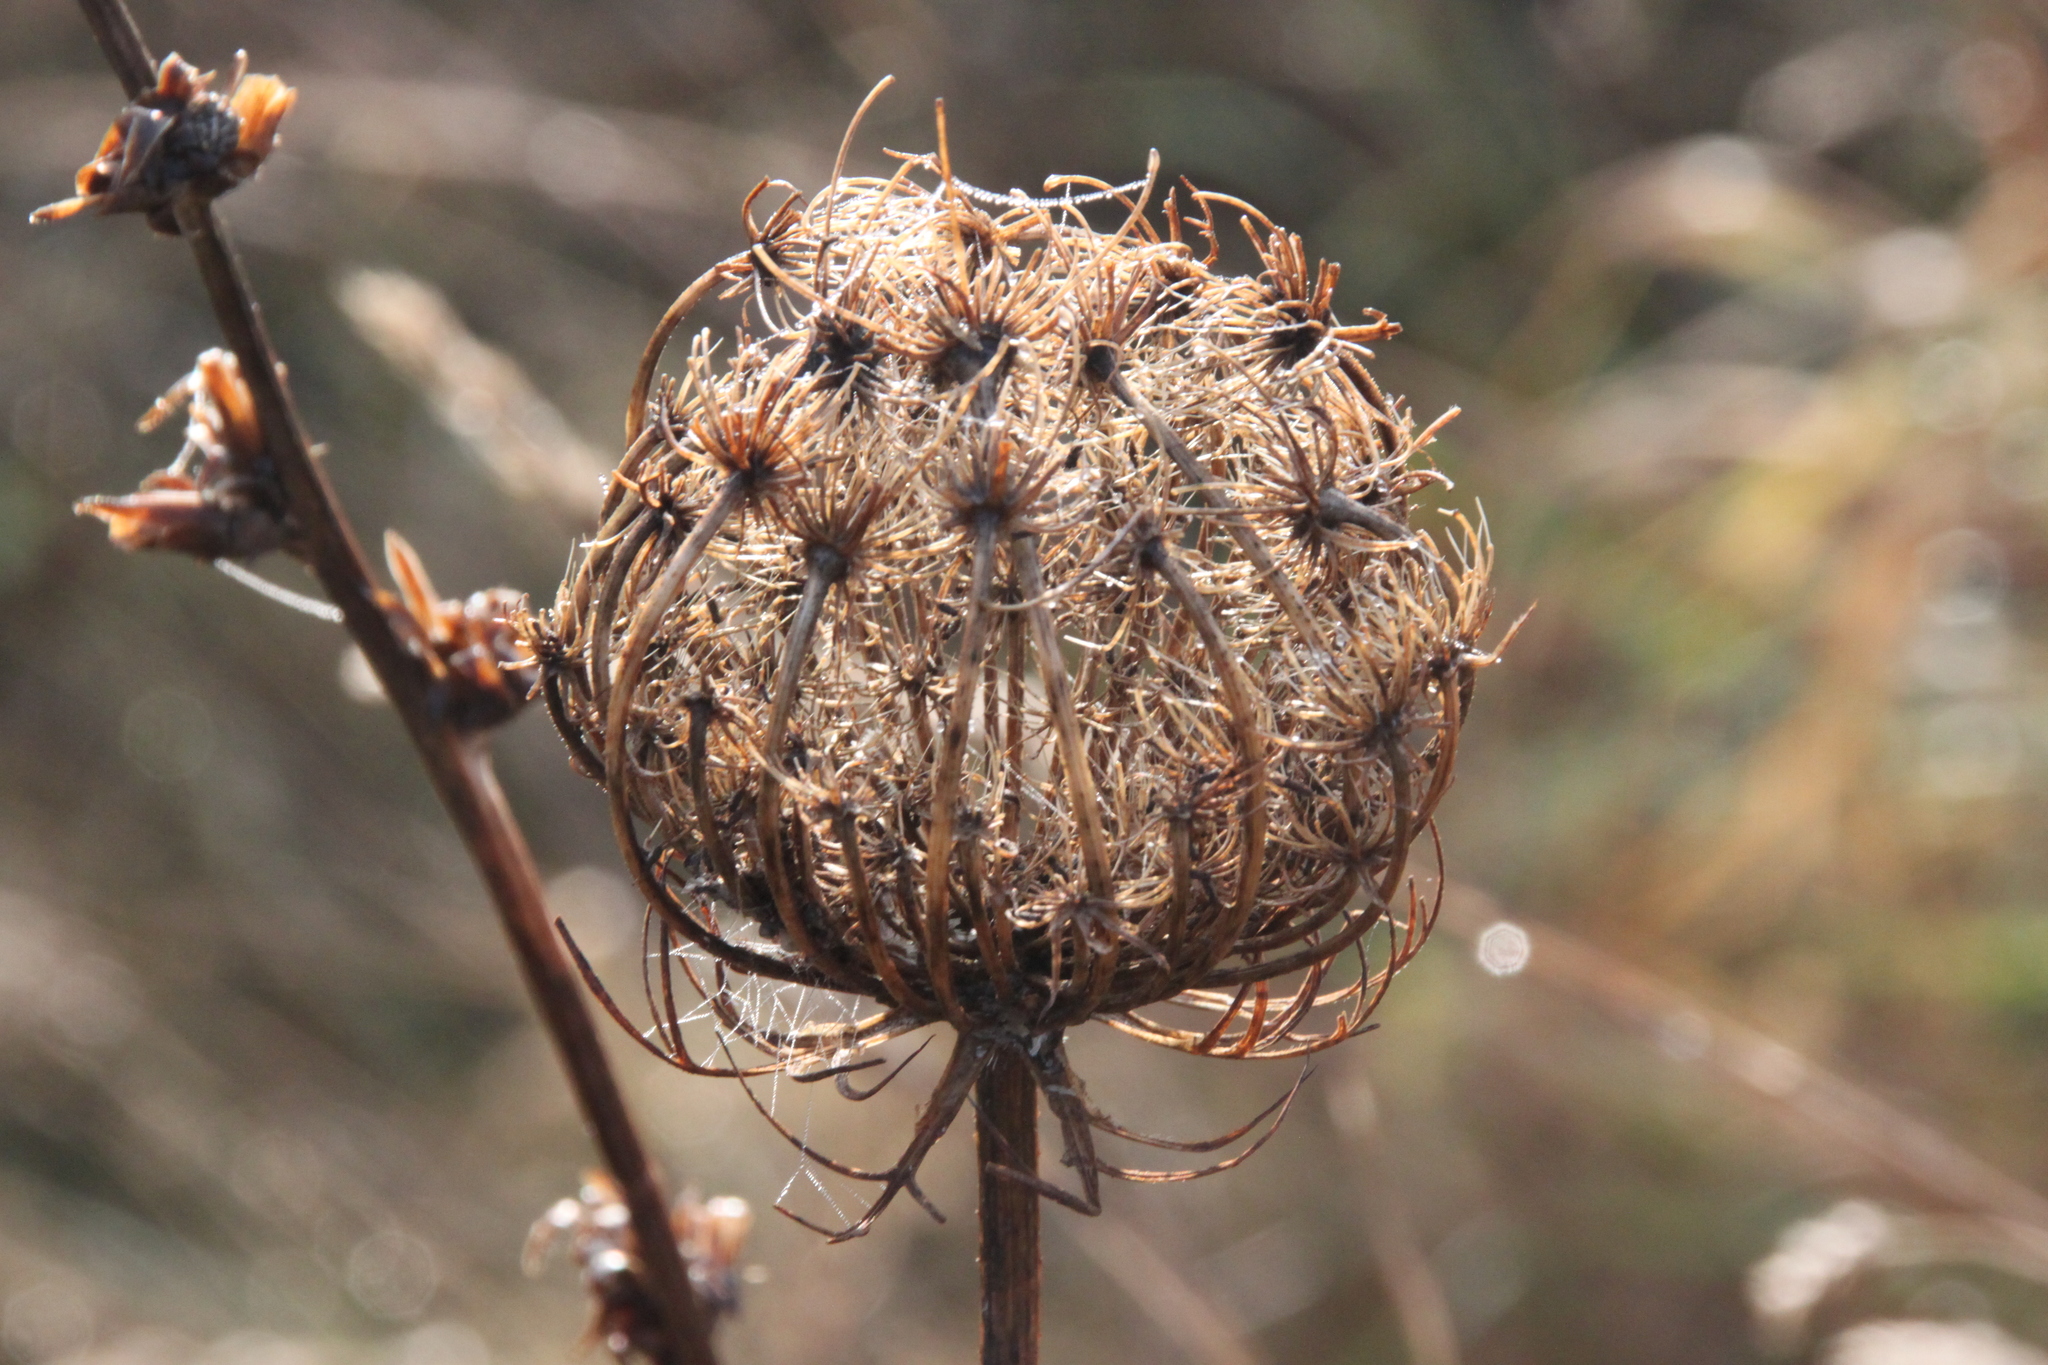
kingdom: Plantae
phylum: Tracheophyta
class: Magnoliopsida
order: Apiales
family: Apiaceae
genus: Daucus
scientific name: Daucus carota
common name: Wild carrot
